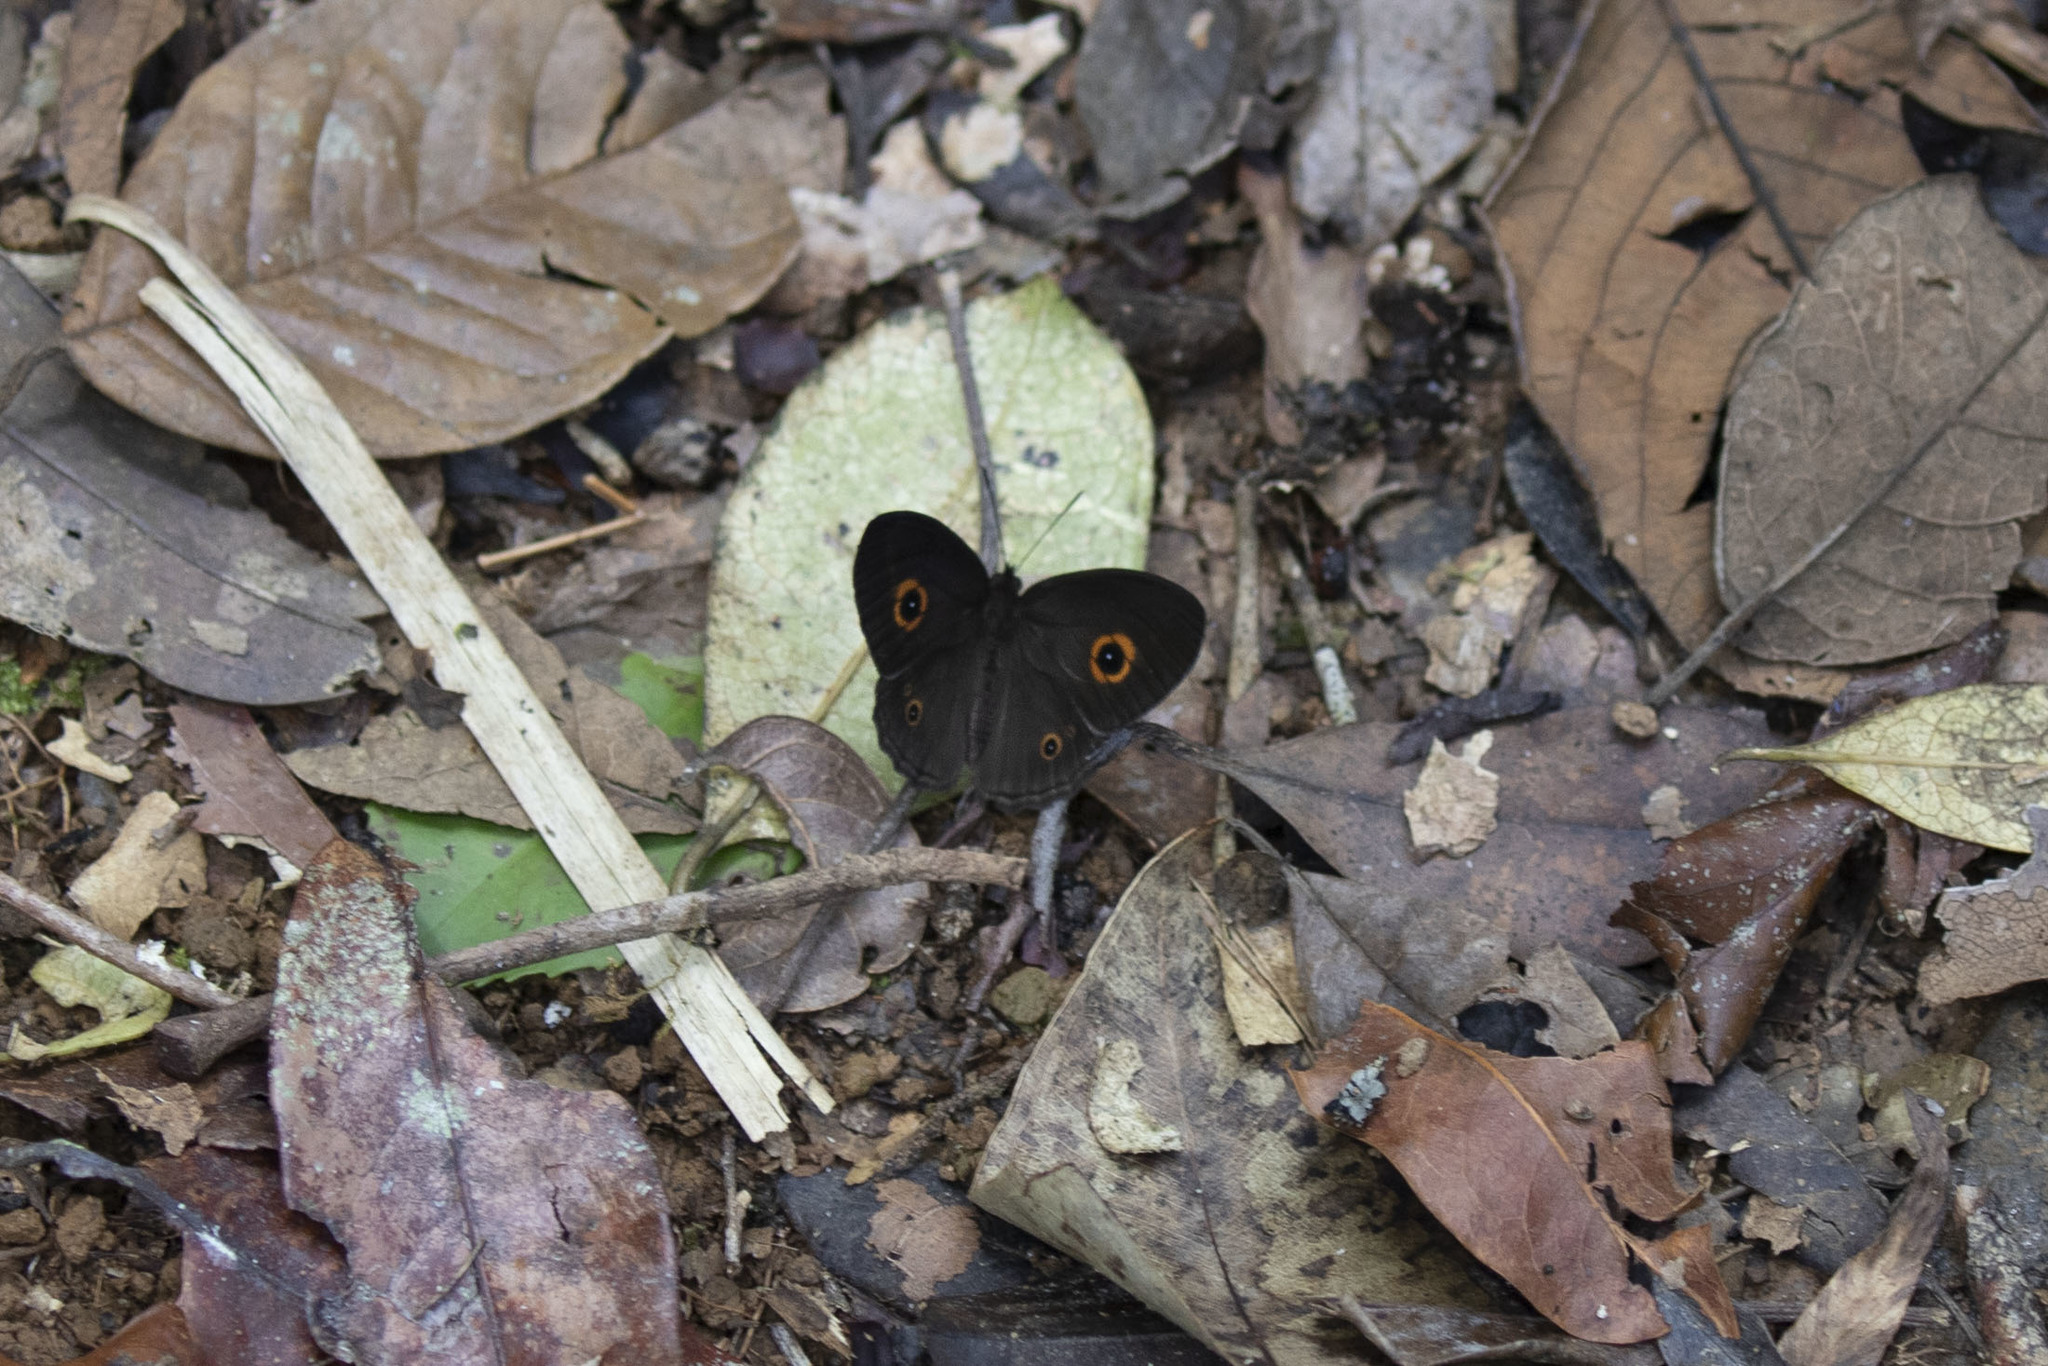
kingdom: Animalia
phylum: Arthropoda
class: Insecta
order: Lepidoptera
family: Nymphalidae
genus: Heteropsis
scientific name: Heteropsis vola
